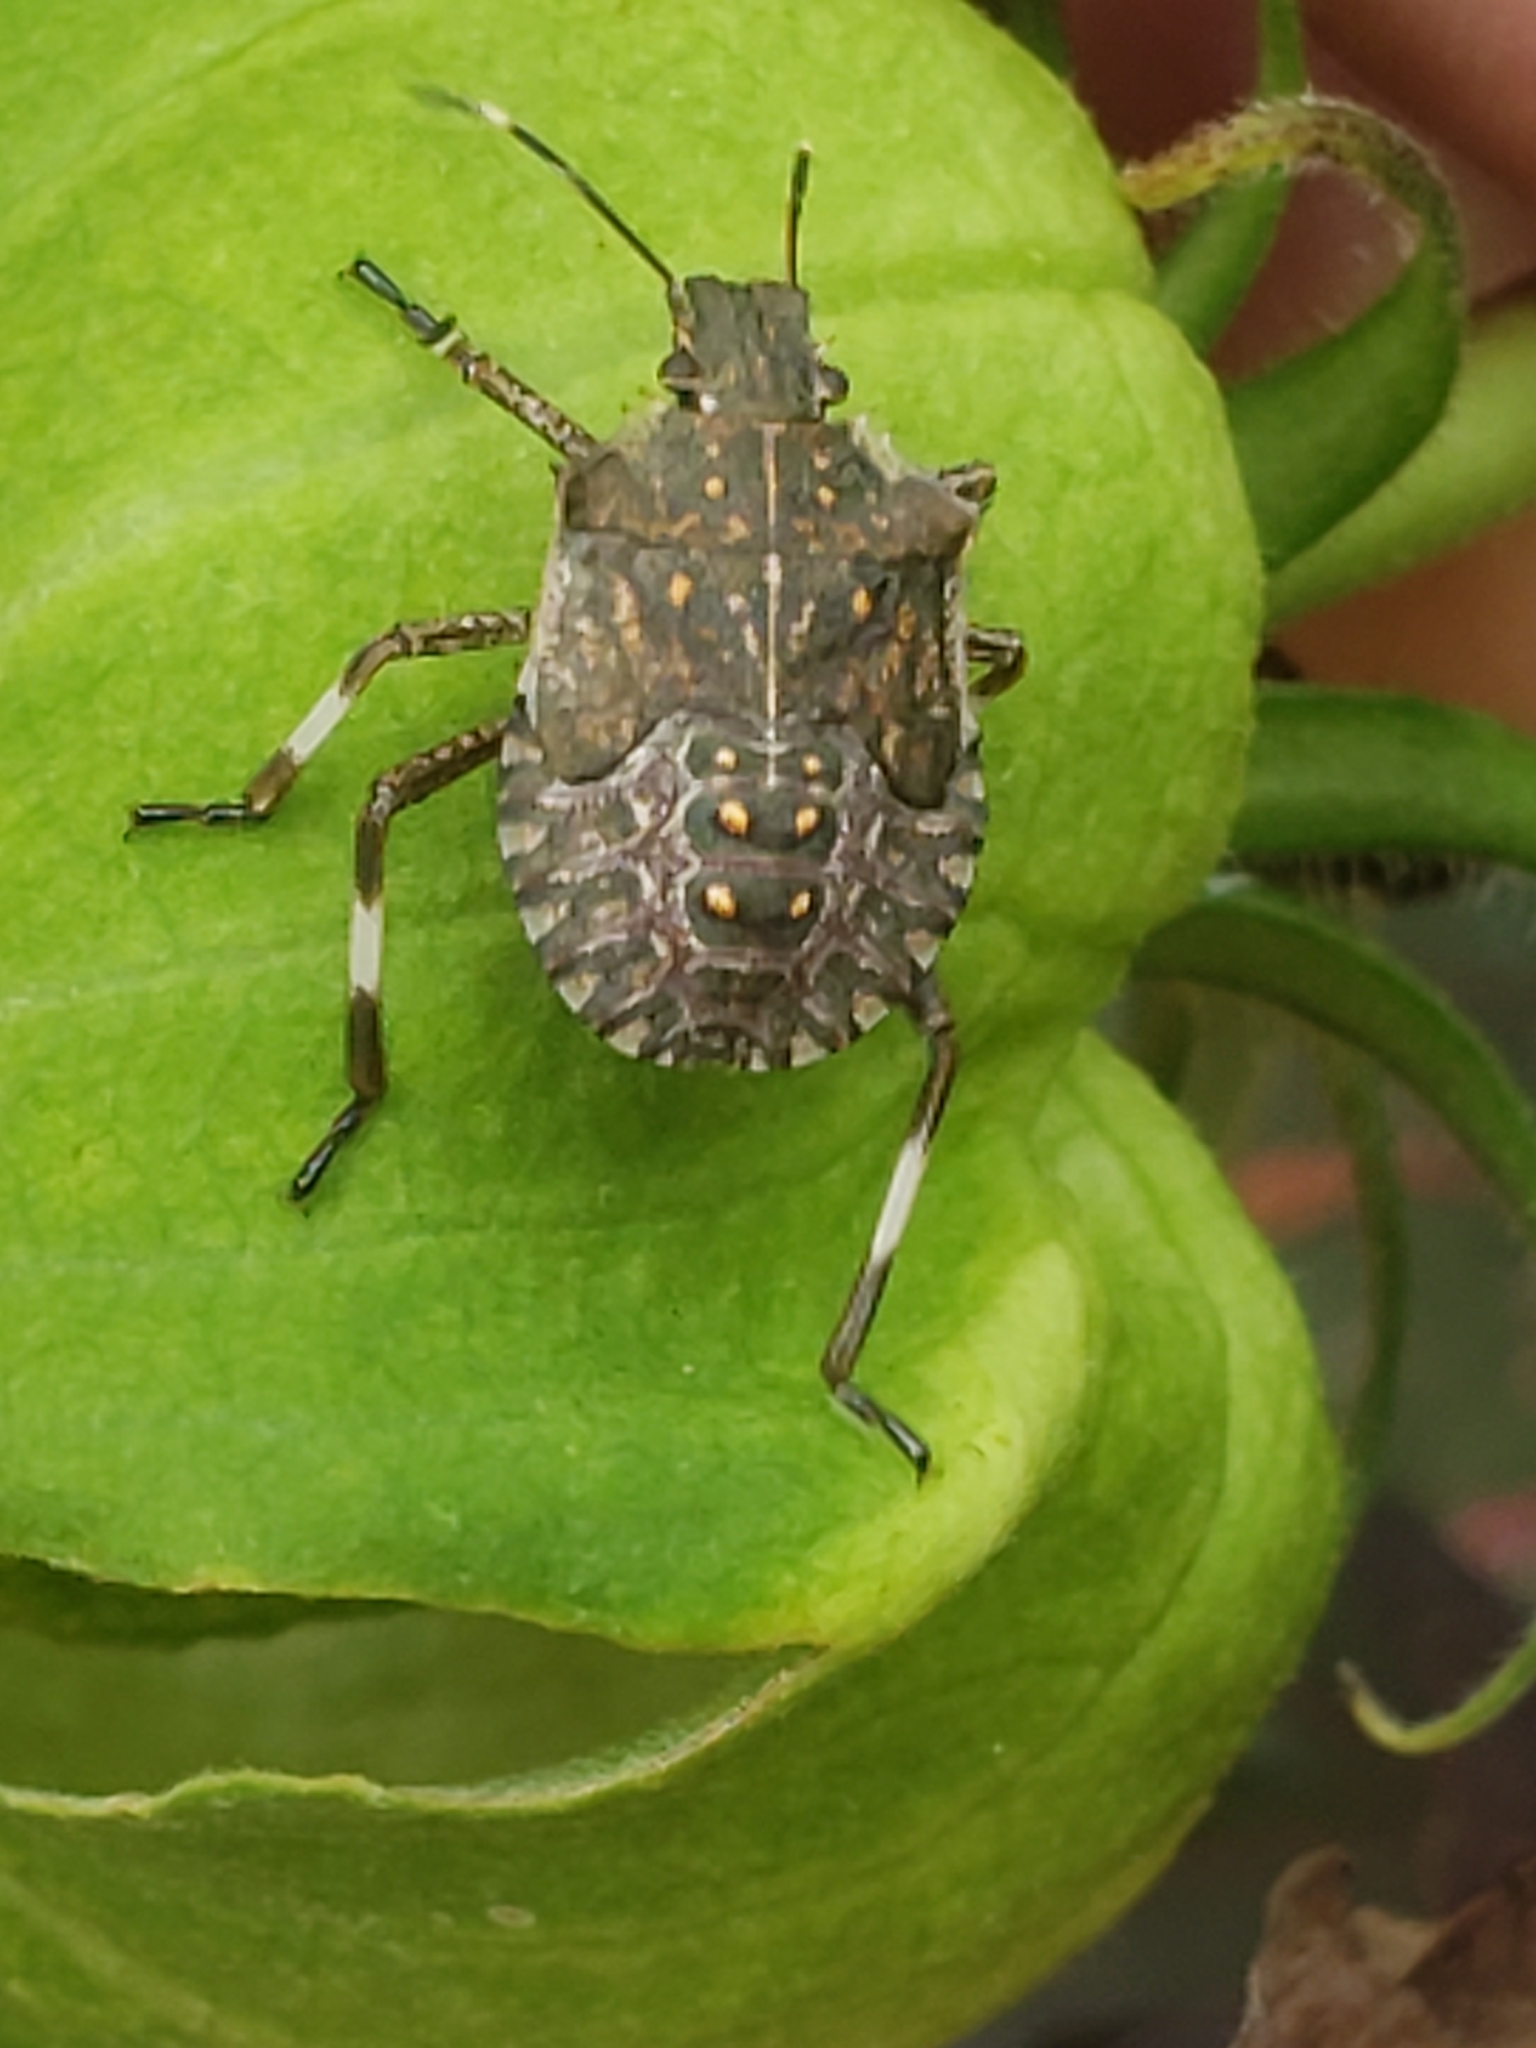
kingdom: Animalia
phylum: Arthropoda
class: Insecta
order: Hemiptera
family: Pentatomidae
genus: Halyomorpha
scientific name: Halyomorpha halys
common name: Brown marmorated stink bug
